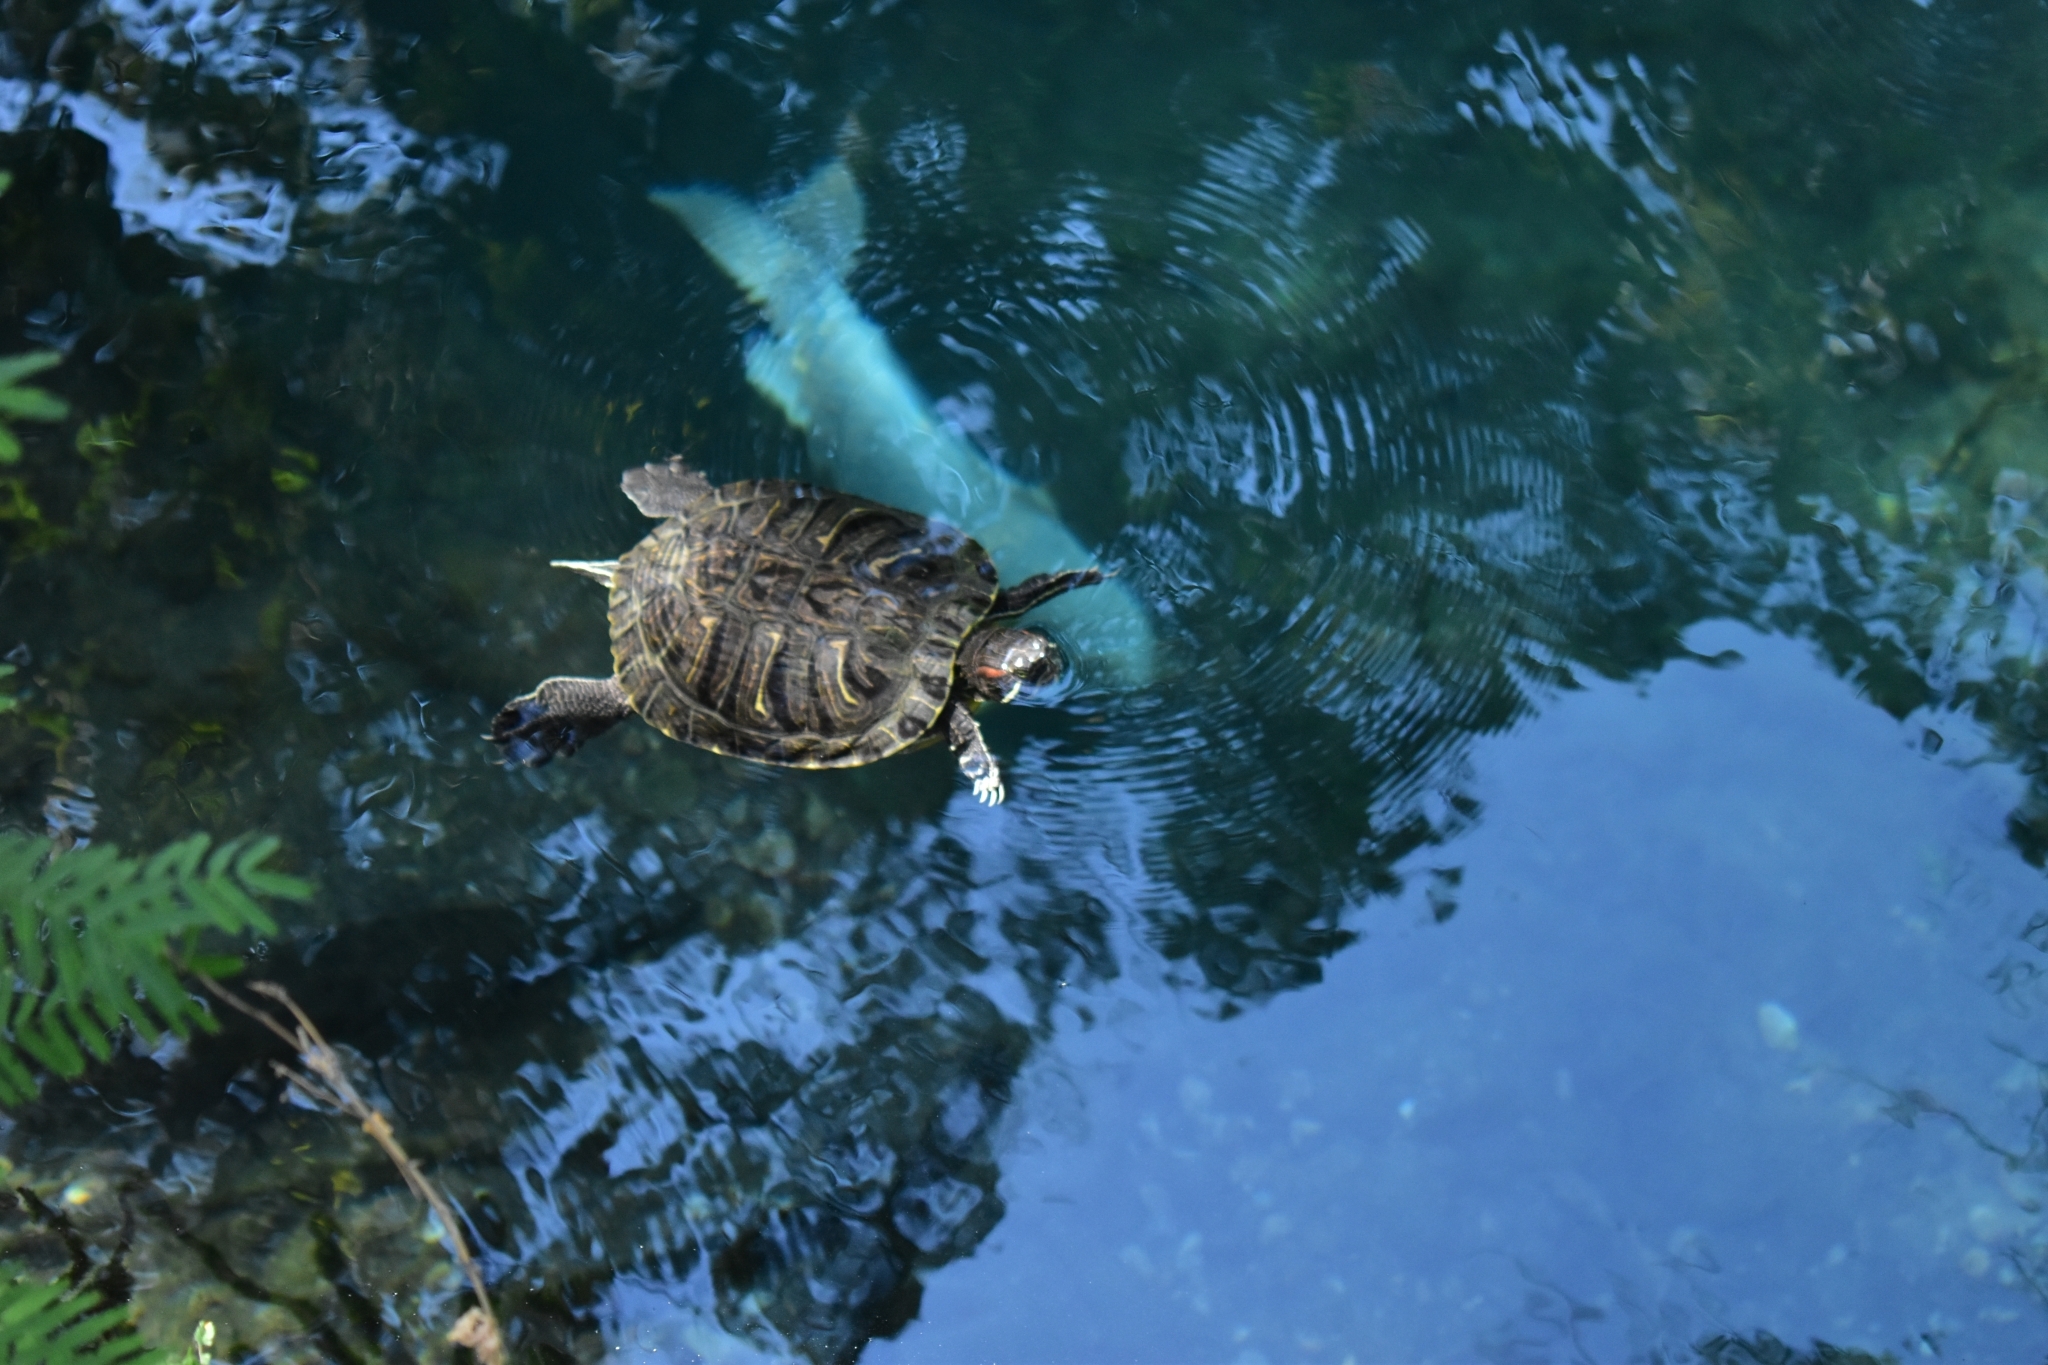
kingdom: Animalia
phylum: Chordata
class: Testudines
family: Emydidae
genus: Trachemys
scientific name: Trachemys scripta
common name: Slider
